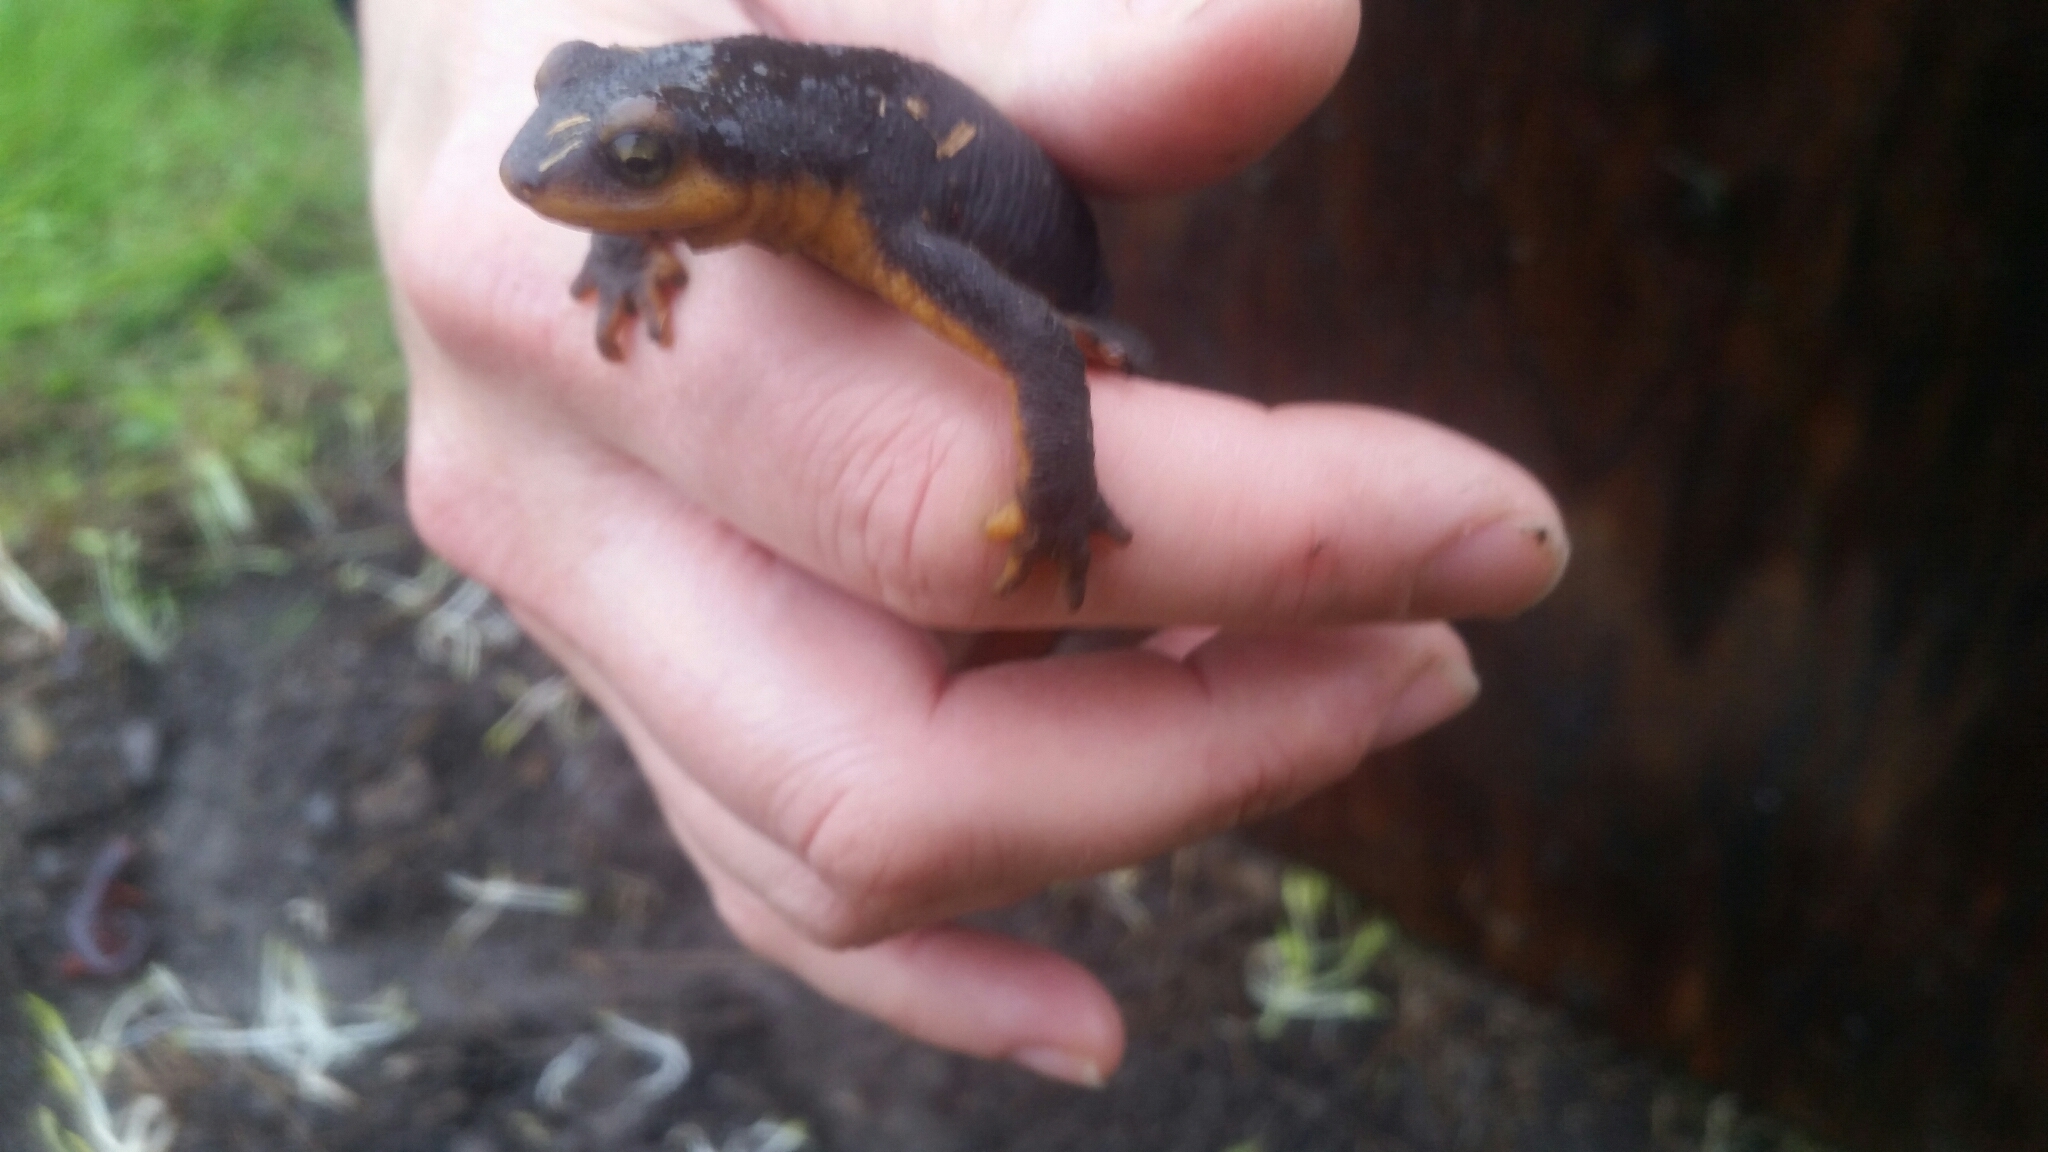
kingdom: Animalia
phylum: Chordata
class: Amphibia
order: Caudata
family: Salamandridae
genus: Taricha
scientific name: Taricha torosa
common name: California newt
